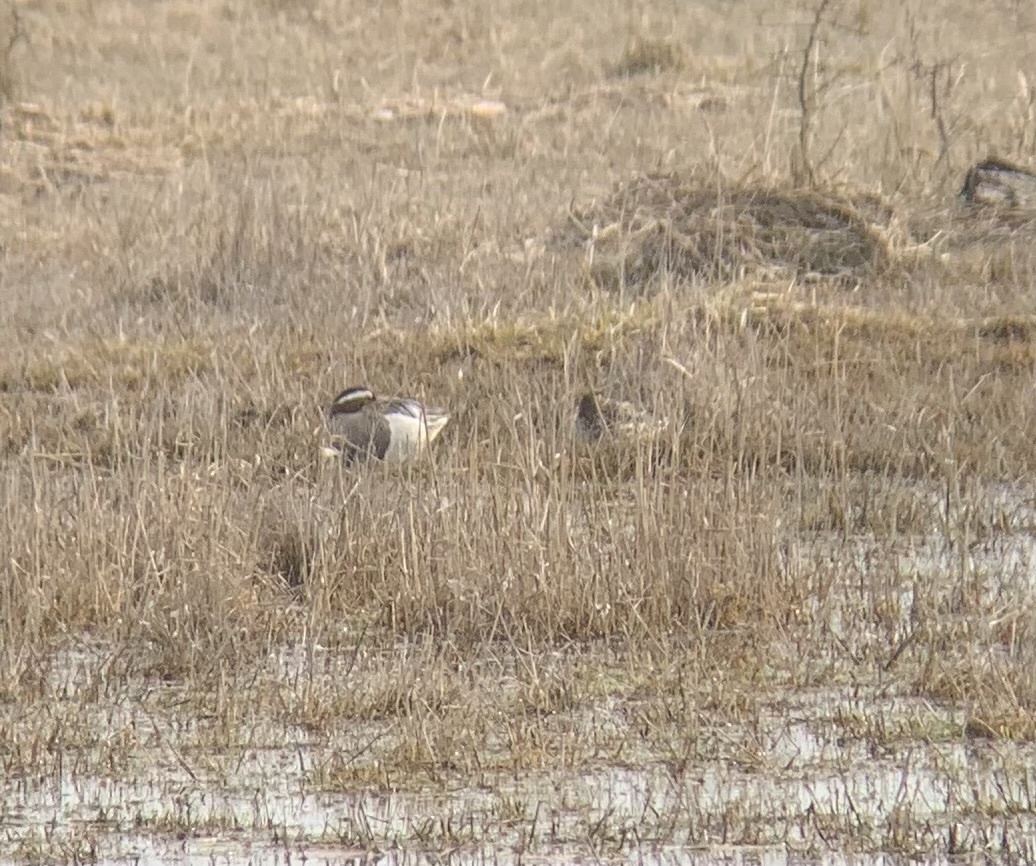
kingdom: Animalia
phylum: Chordata
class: Aves
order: Anseriformes
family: Anatidae
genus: Spatula
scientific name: Spatula querquedula
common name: Garganey
